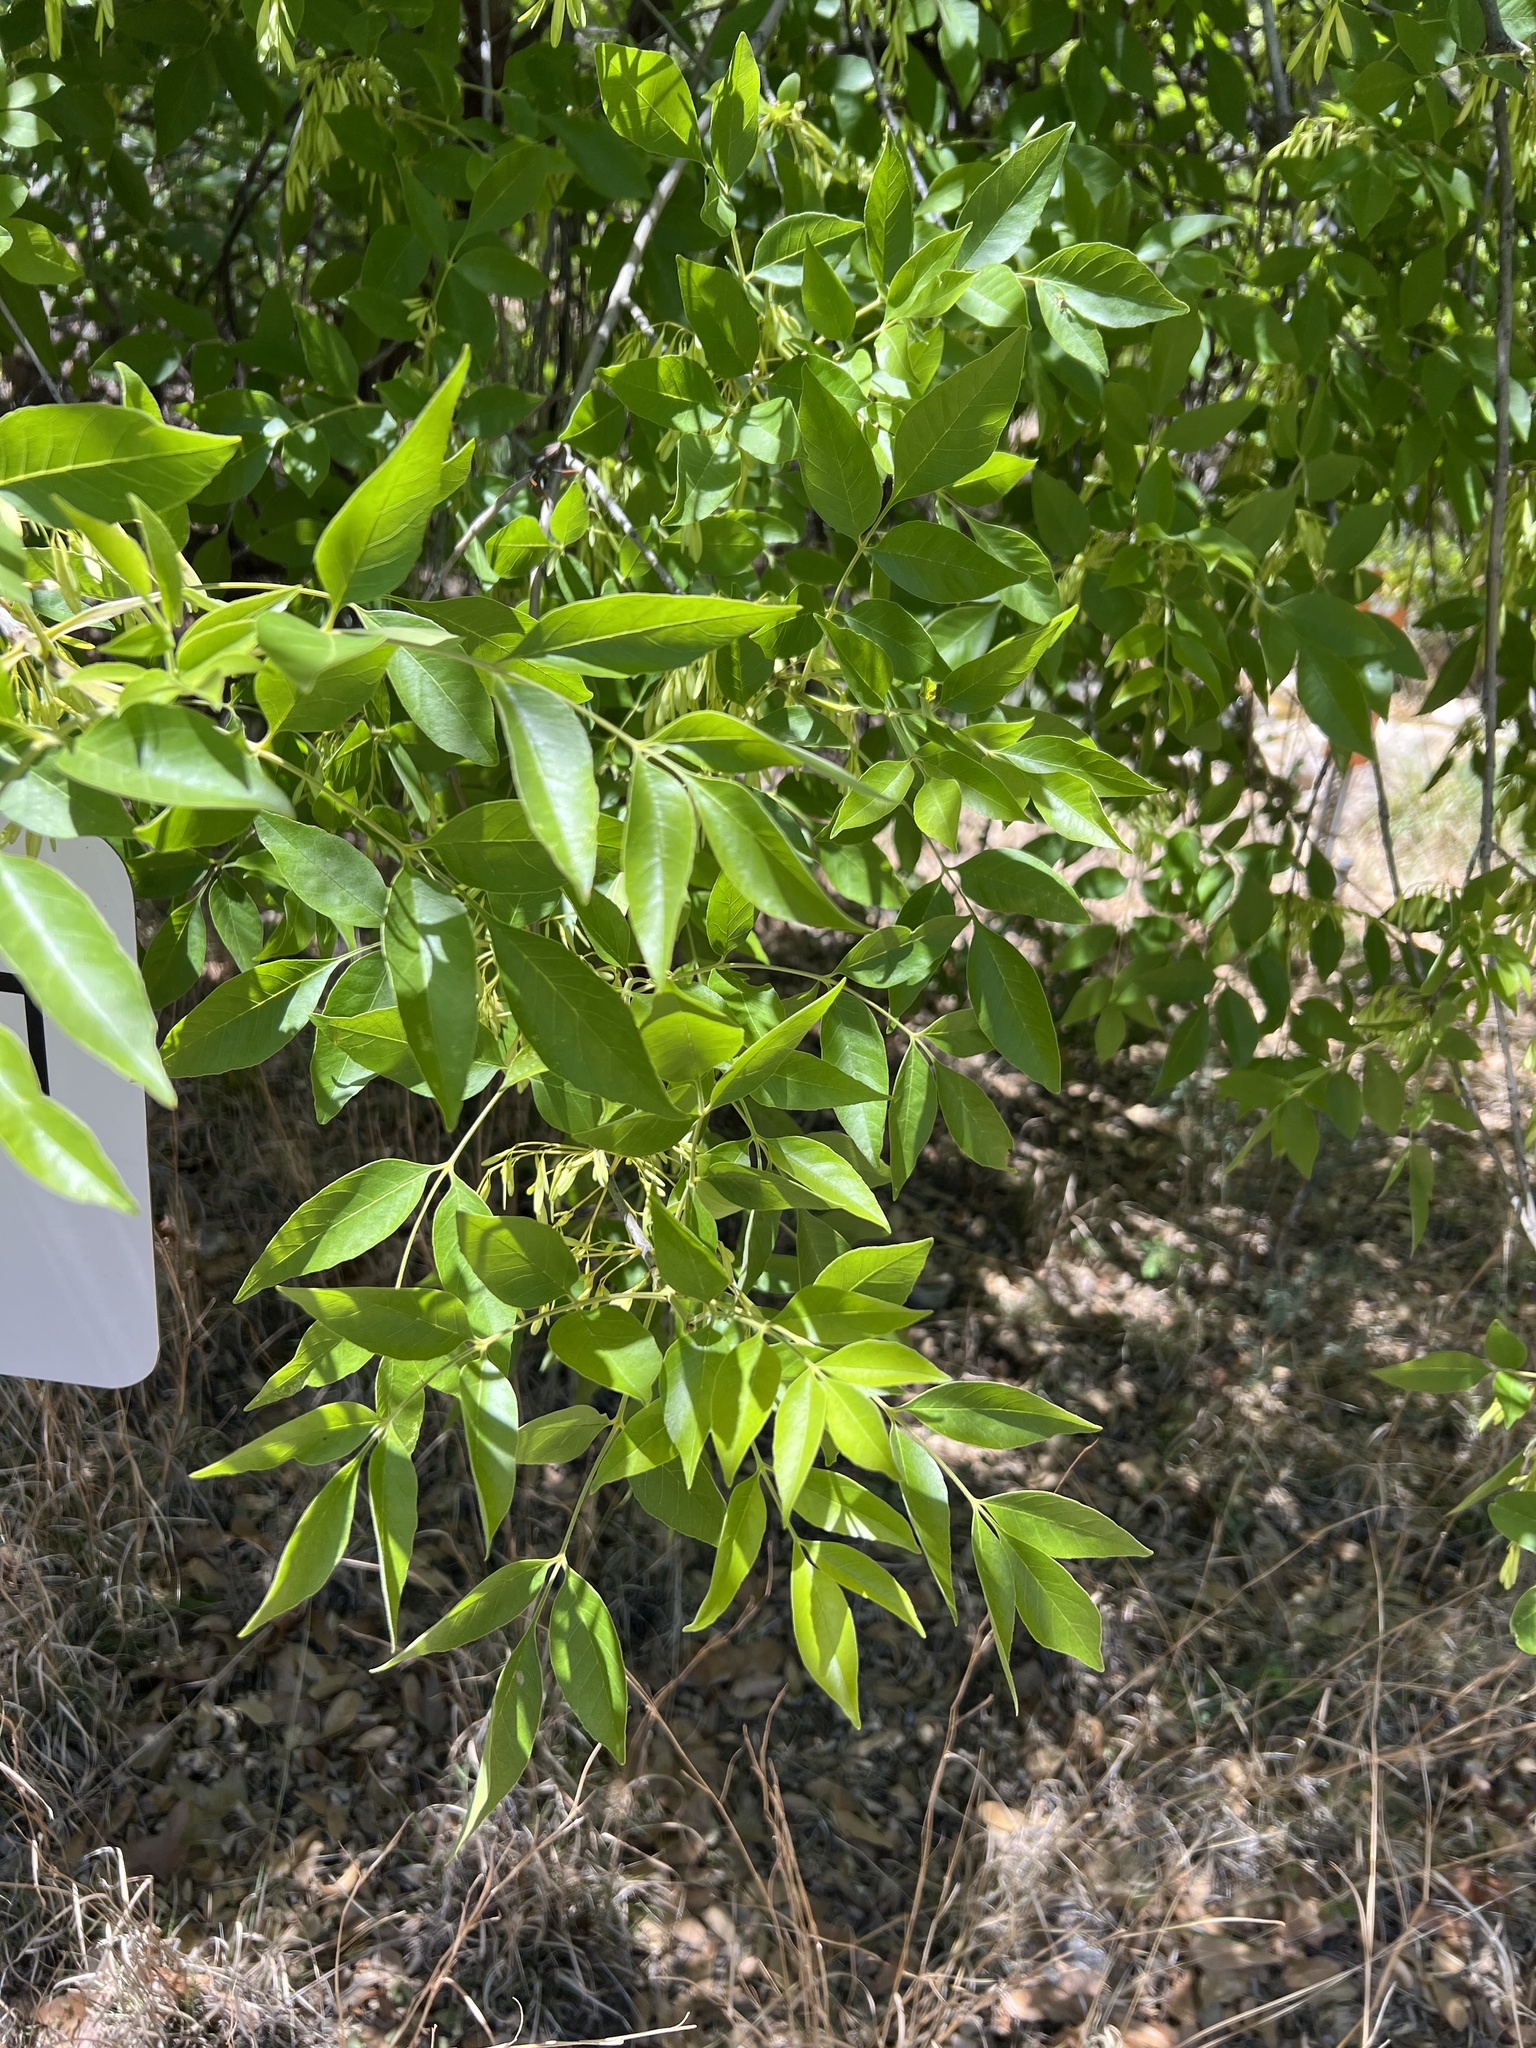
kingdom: Plantae
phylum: Tracheophyta
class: Magnoliopsida
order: Lamiales
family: Oleaceae
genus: Fraxinus
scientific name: Fraxinus velutina
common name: Arizon ash
